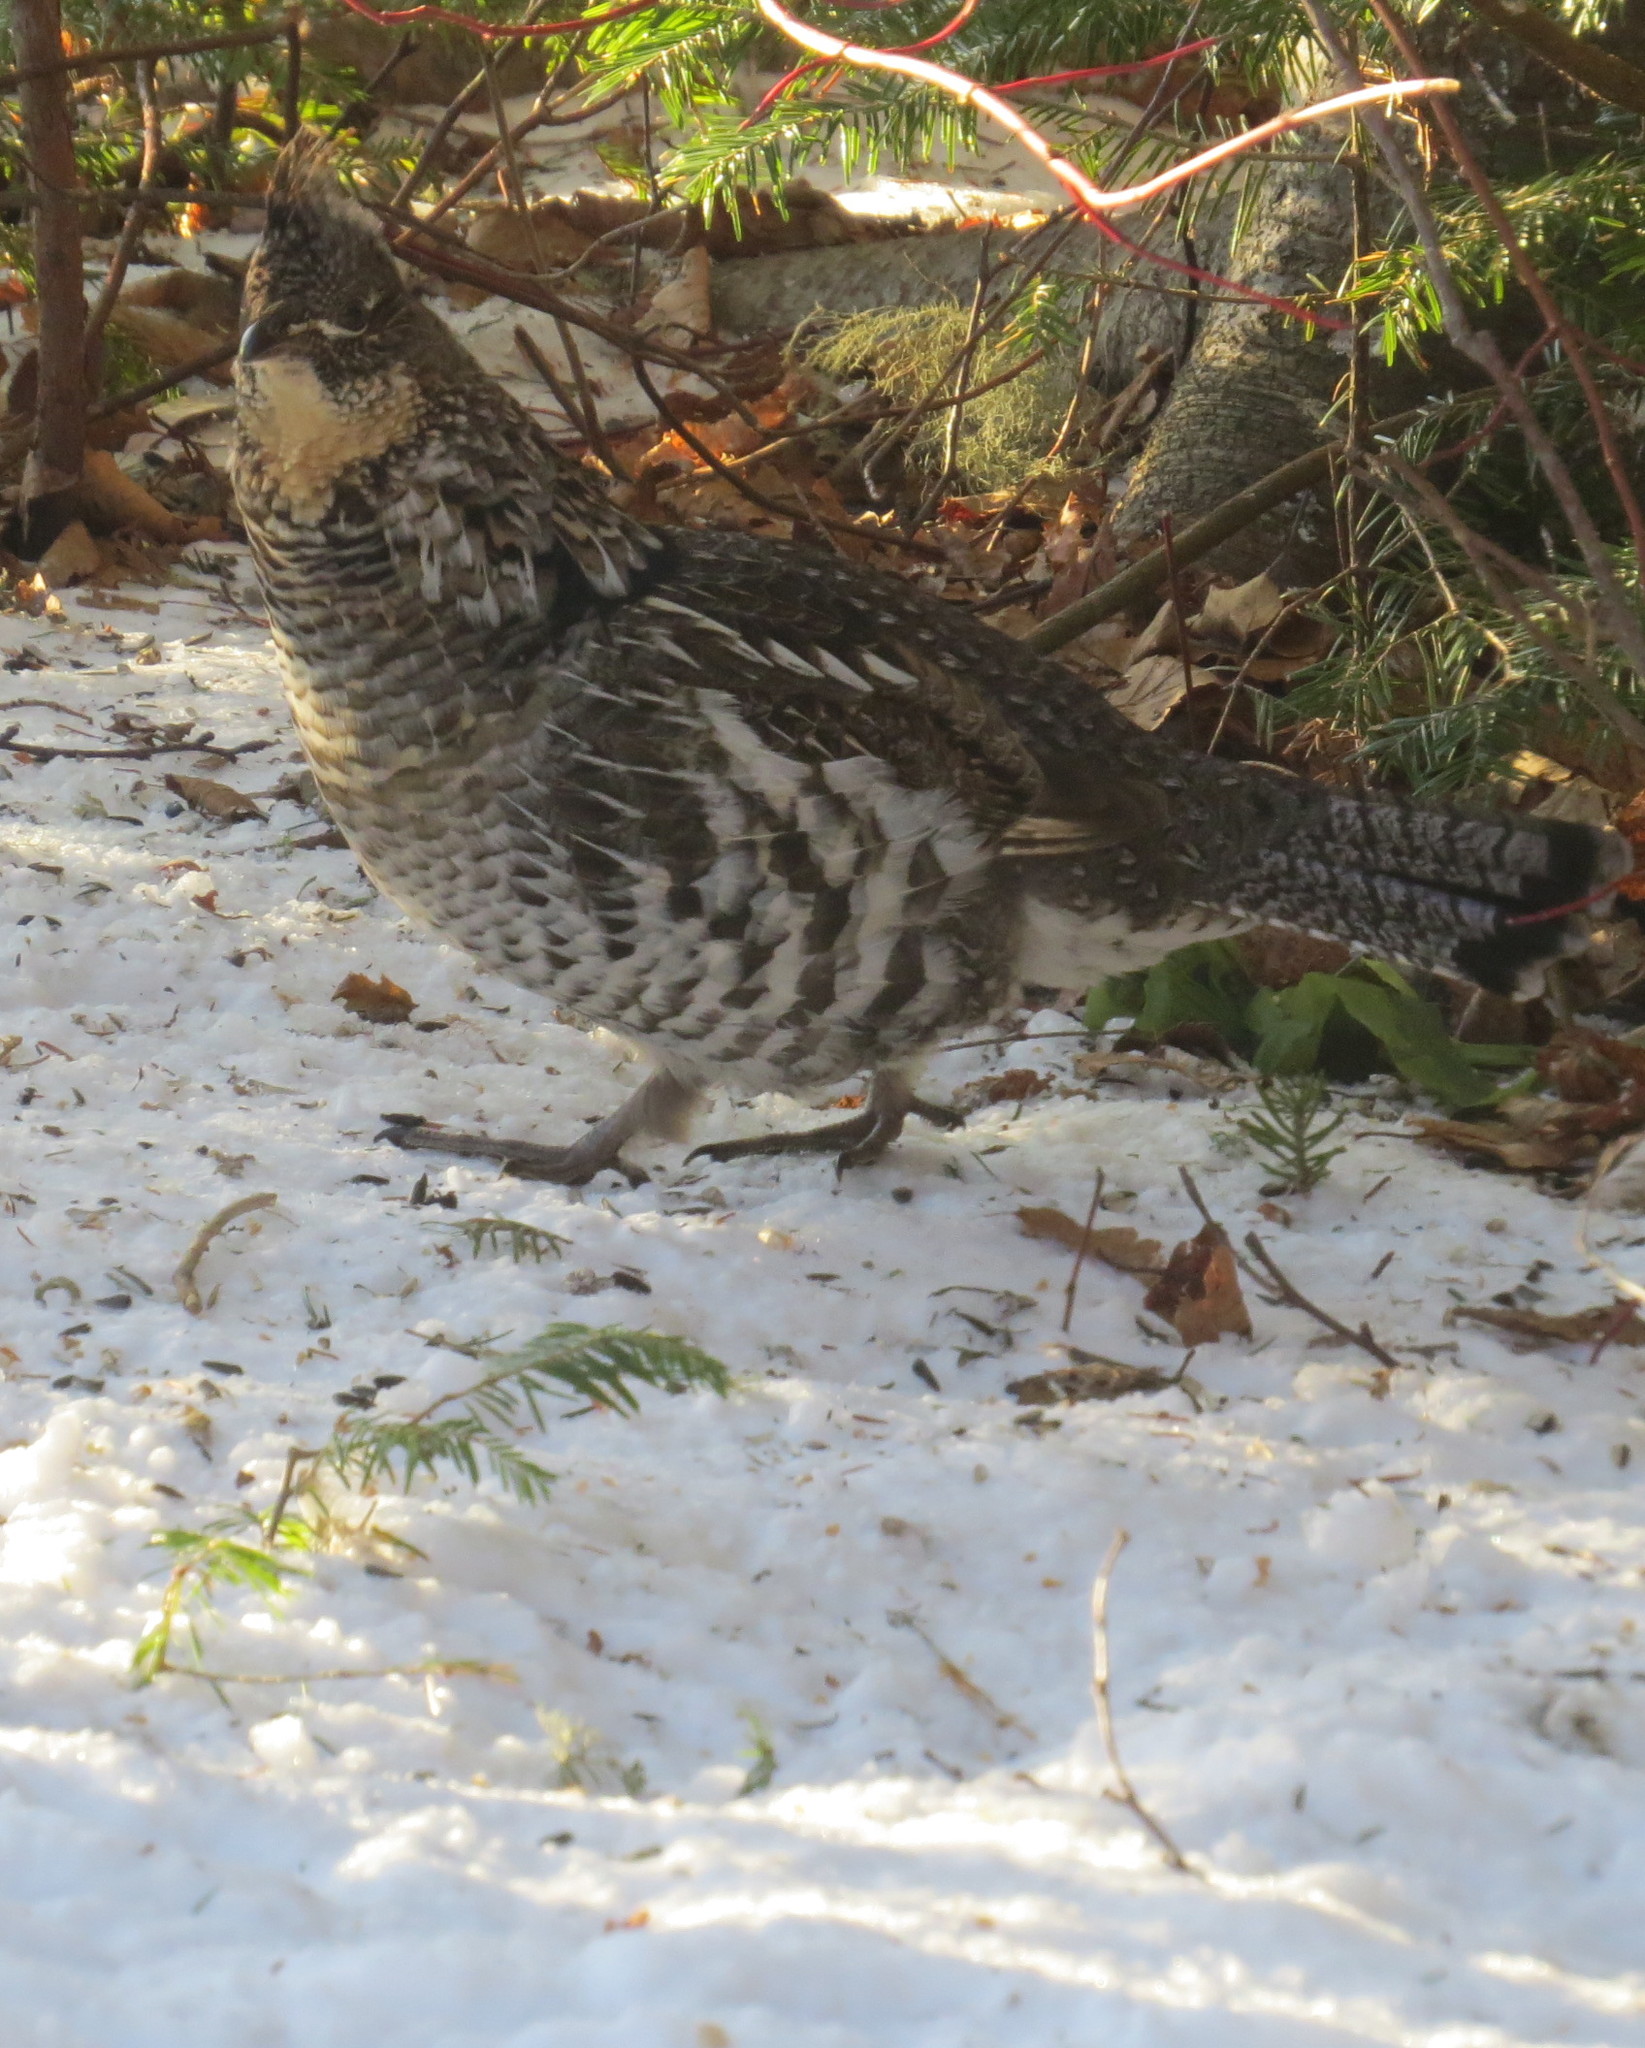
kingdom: Animalia
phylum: Chordata
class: Aves
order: Galliformes
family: Phasianidae
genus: Bonasa
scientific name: Bonasa umbellus
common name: Ruffed grouse
